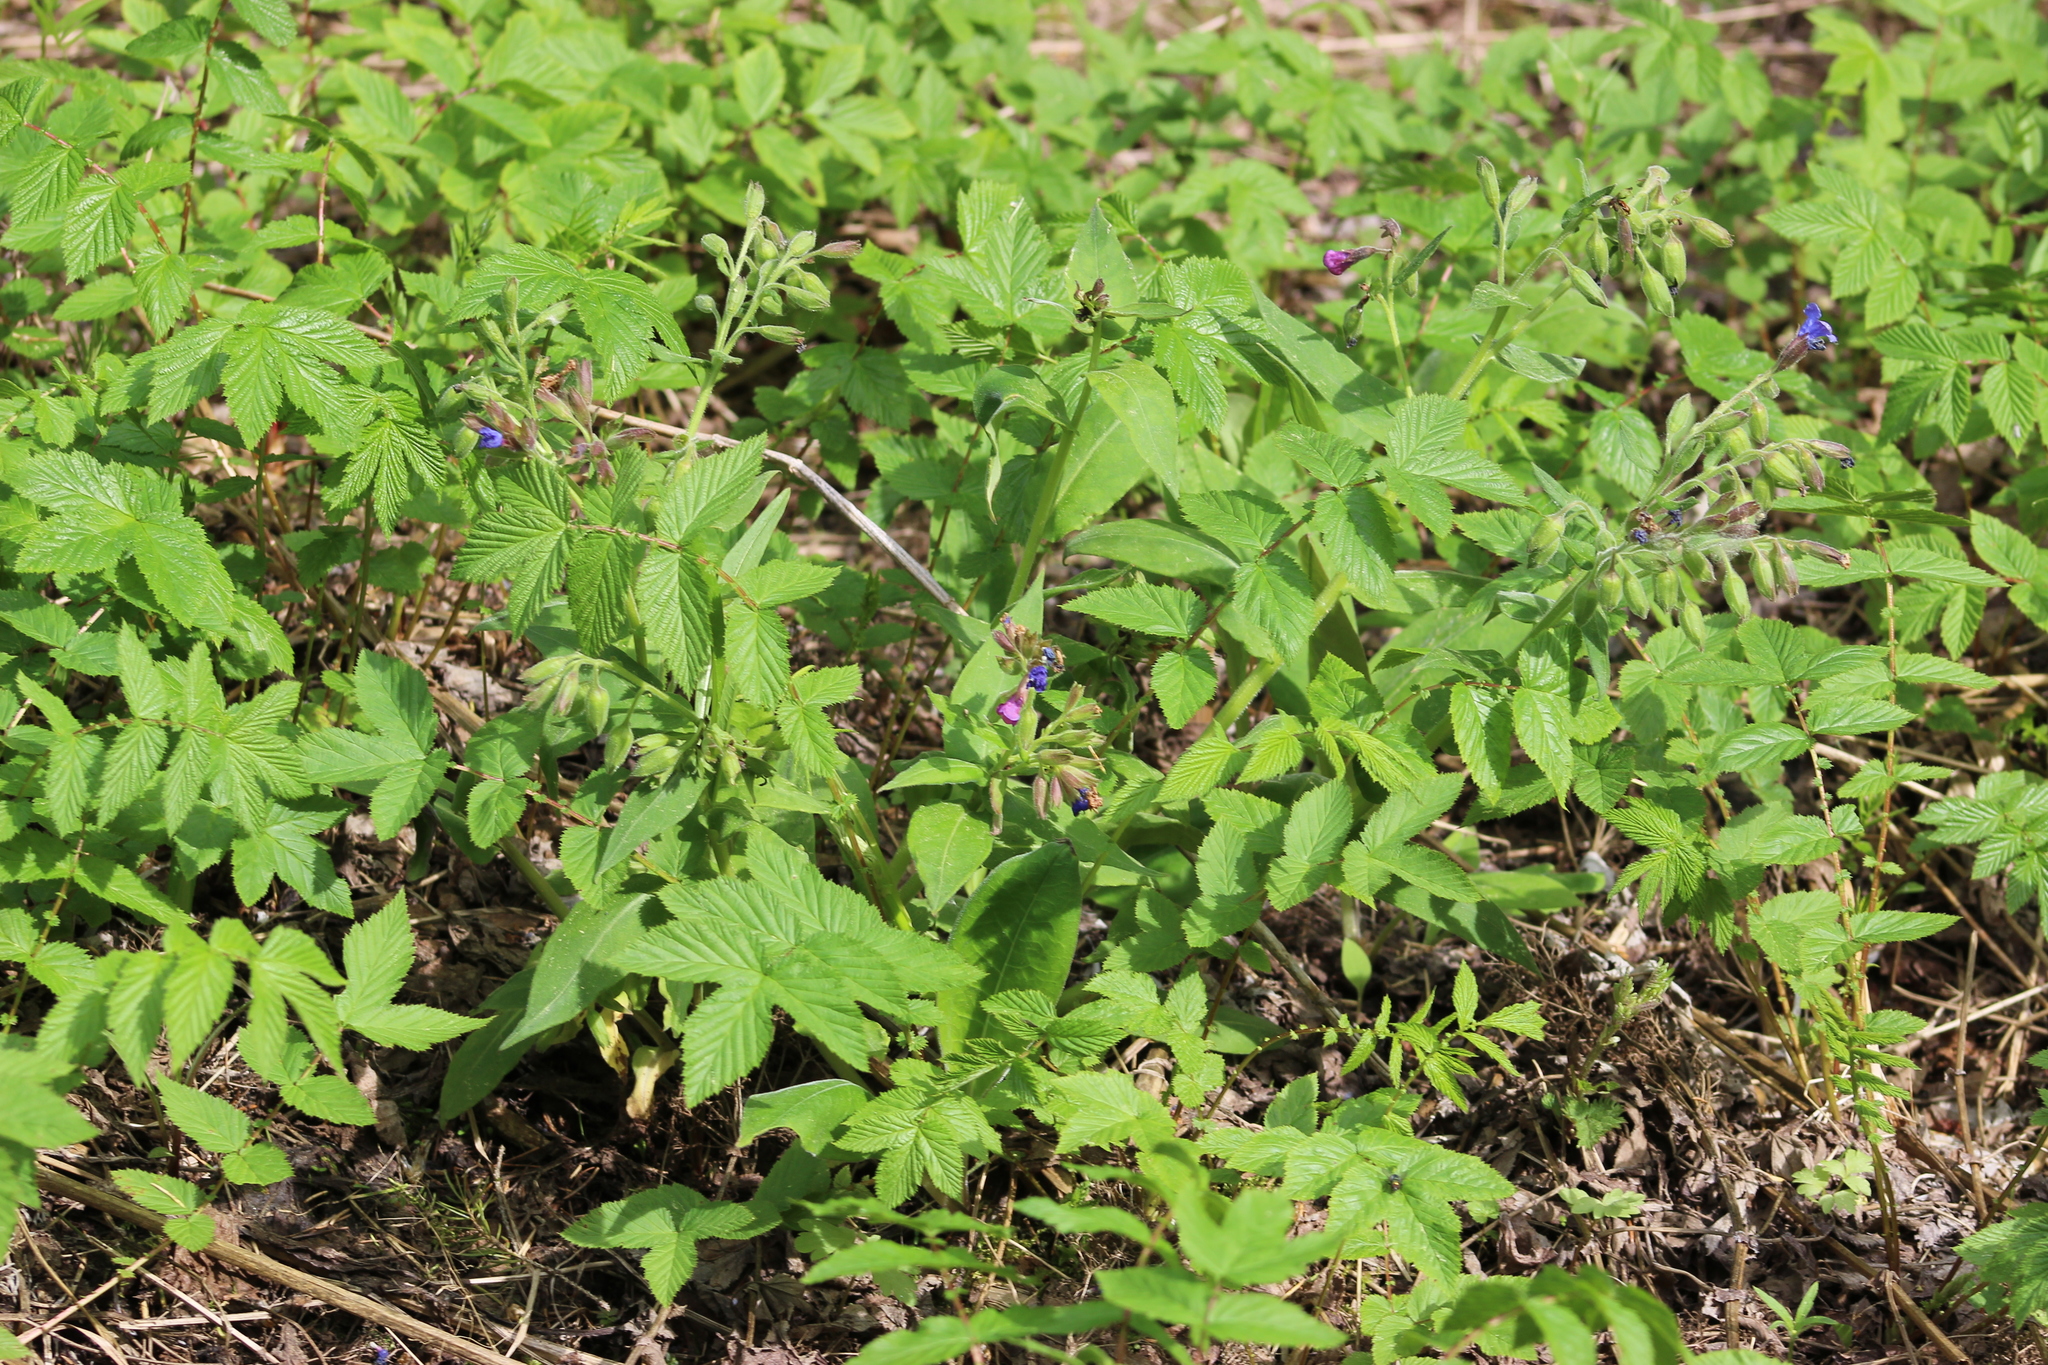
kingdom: Plantae
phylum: Tracheophyta
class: Magnoliopsida
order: Boraginales
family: Boraginaceae
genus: Pulmonaria
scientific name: Pulmonaria mollis
